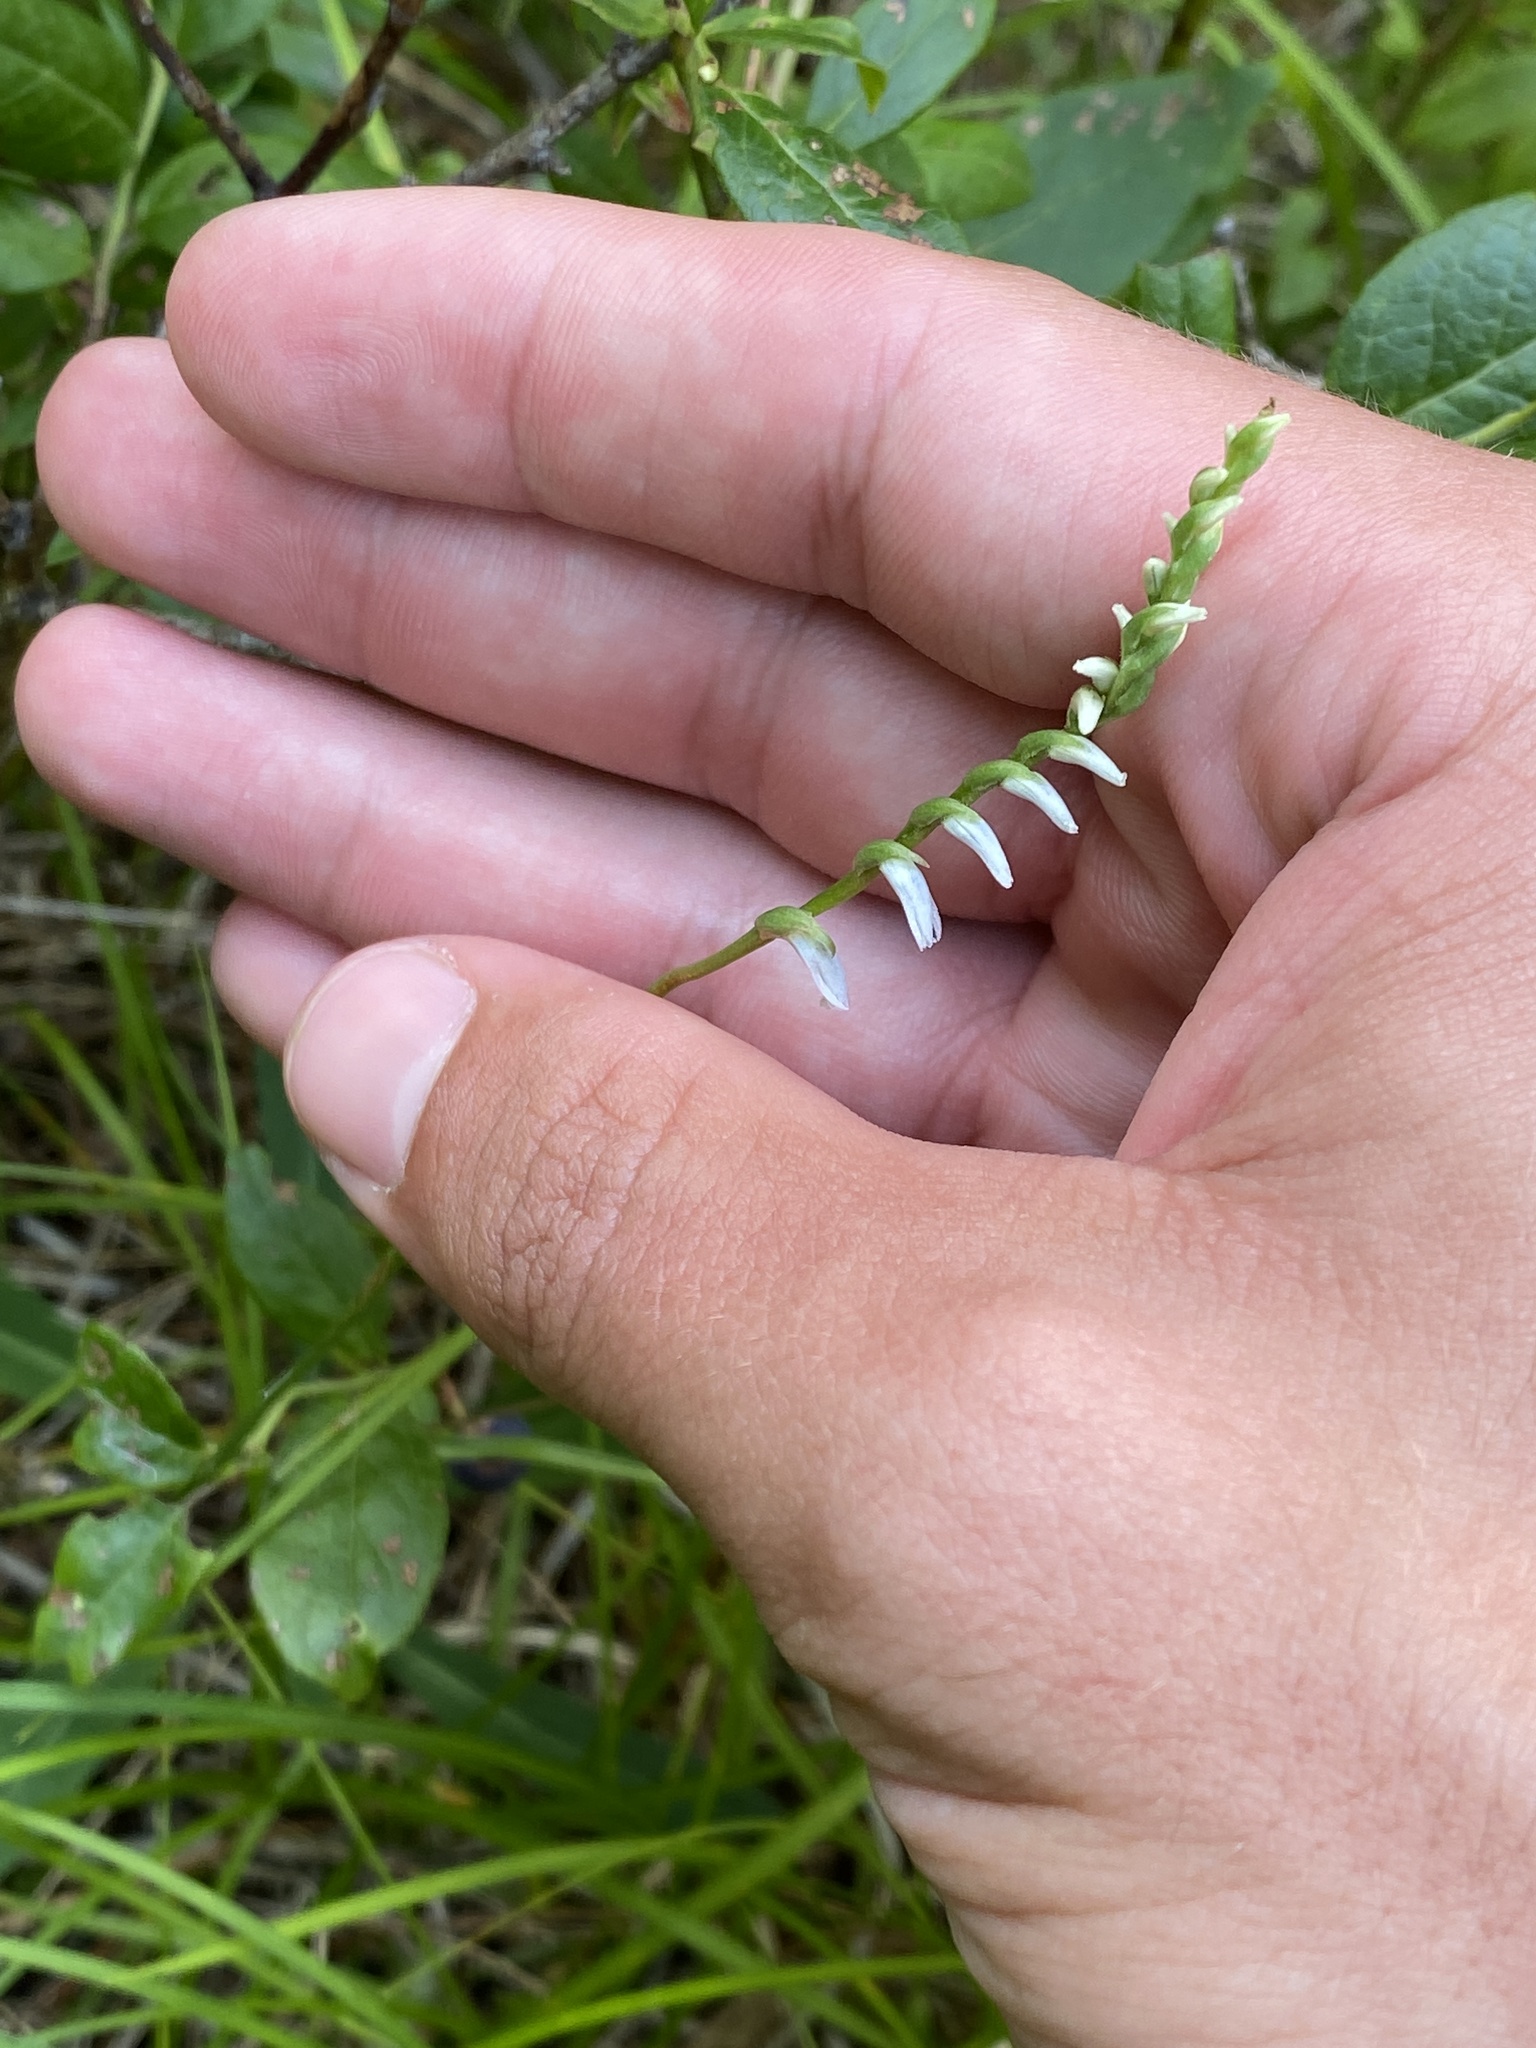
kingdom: Plantae
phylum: Tracheophyta
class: Liliopsida
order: Asparagales
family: Orchidaceae
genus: Spiranthes
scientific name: Spiranthes lacera
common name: Northern slender ladies'-tresses
